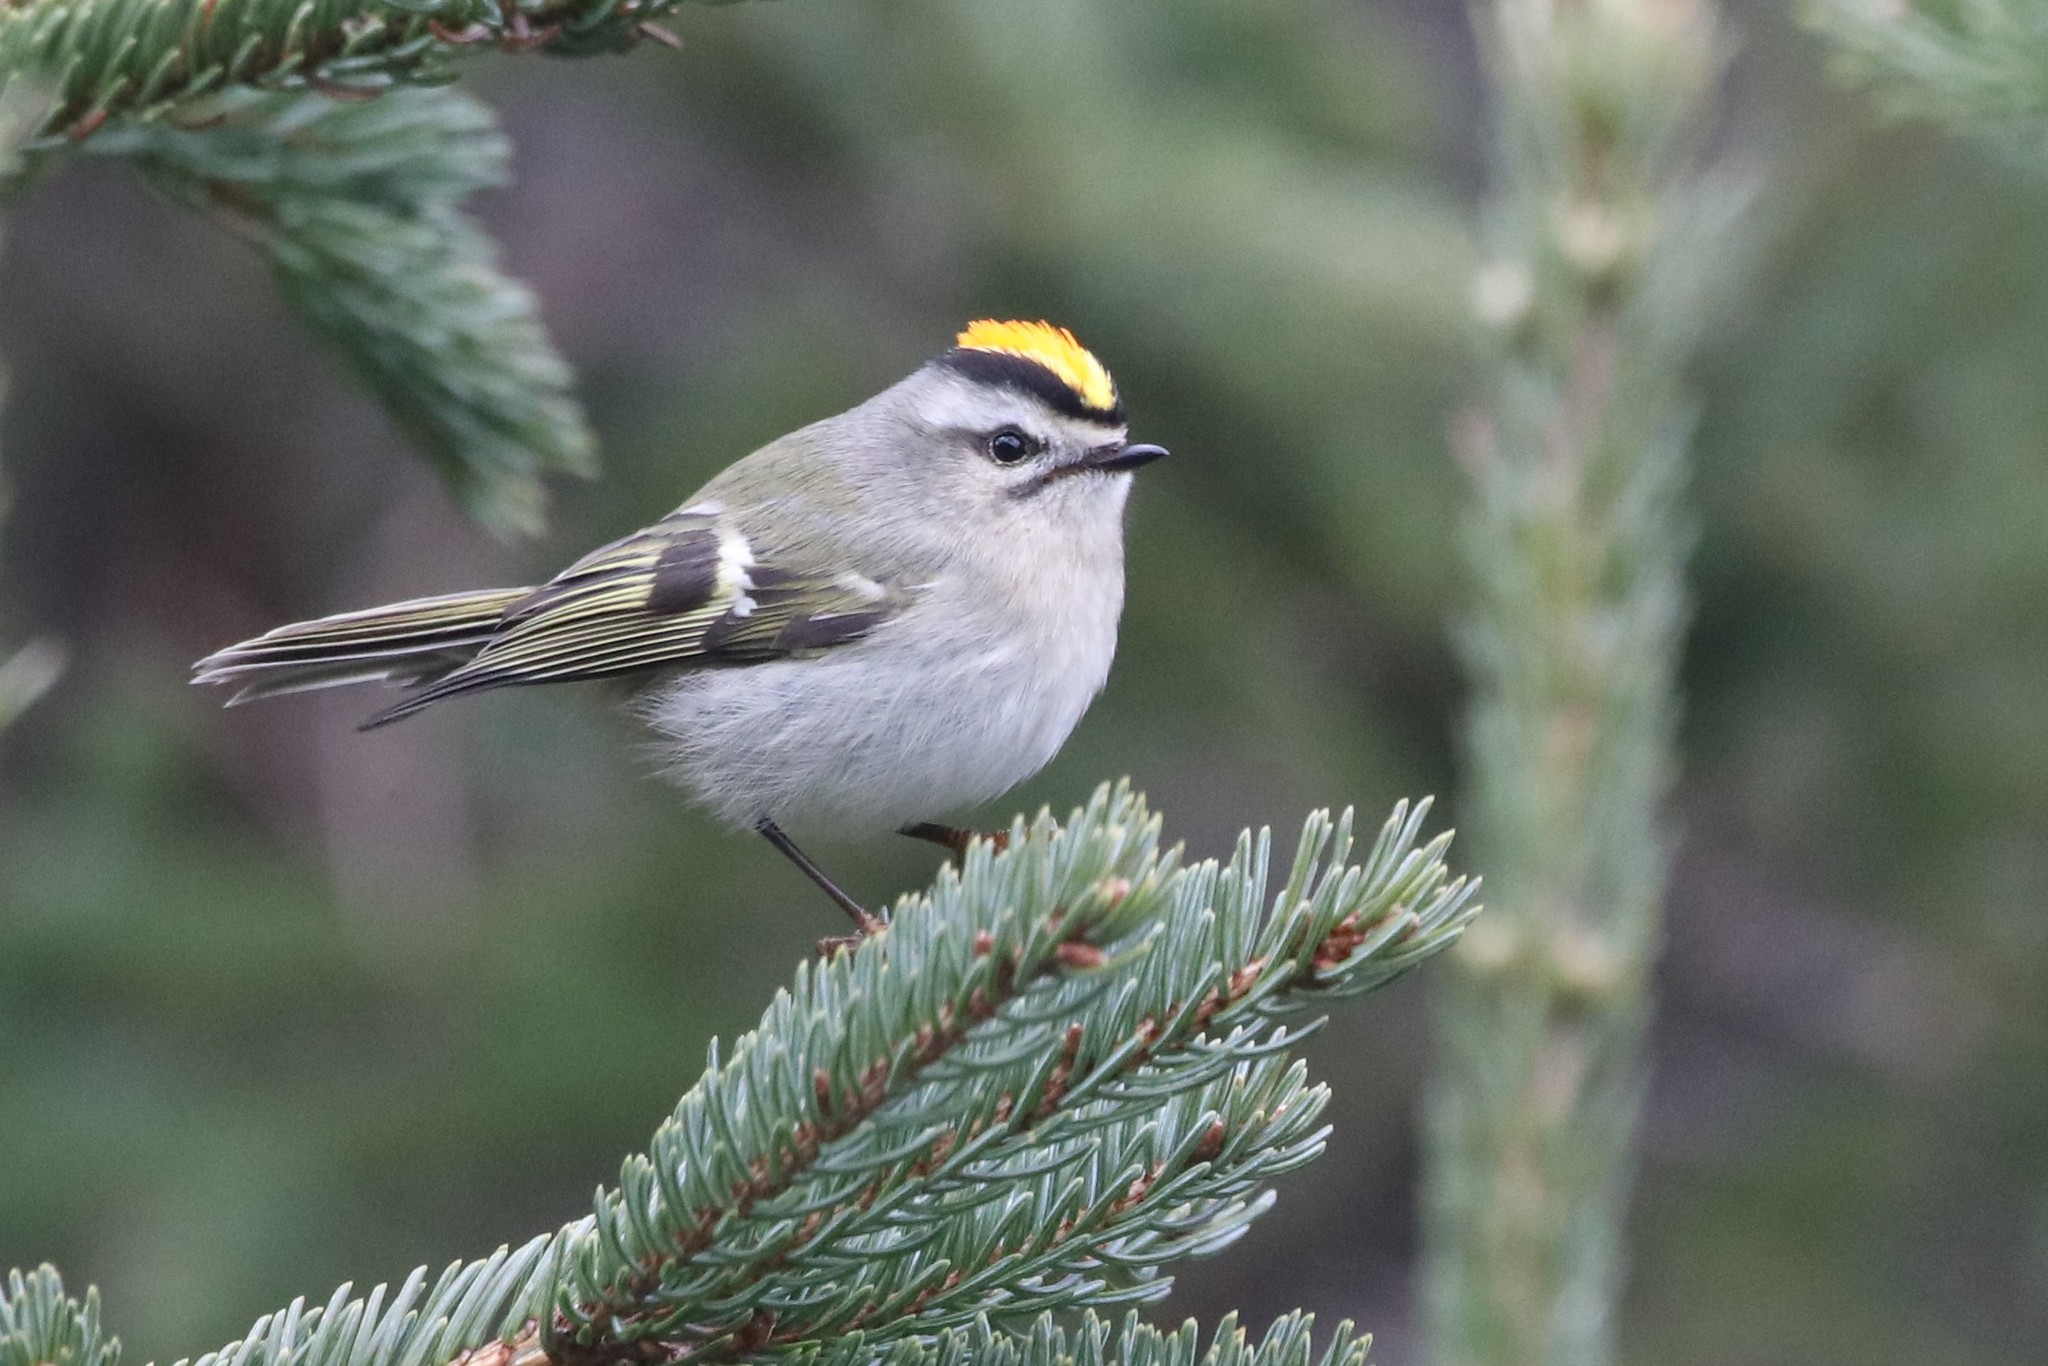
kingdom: Animalia
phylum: Chordata
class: Aves
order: Passeriformes
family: Regulidae
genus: Regulus
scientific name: Regulus satrapa
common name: Golden-crowned kinglet
